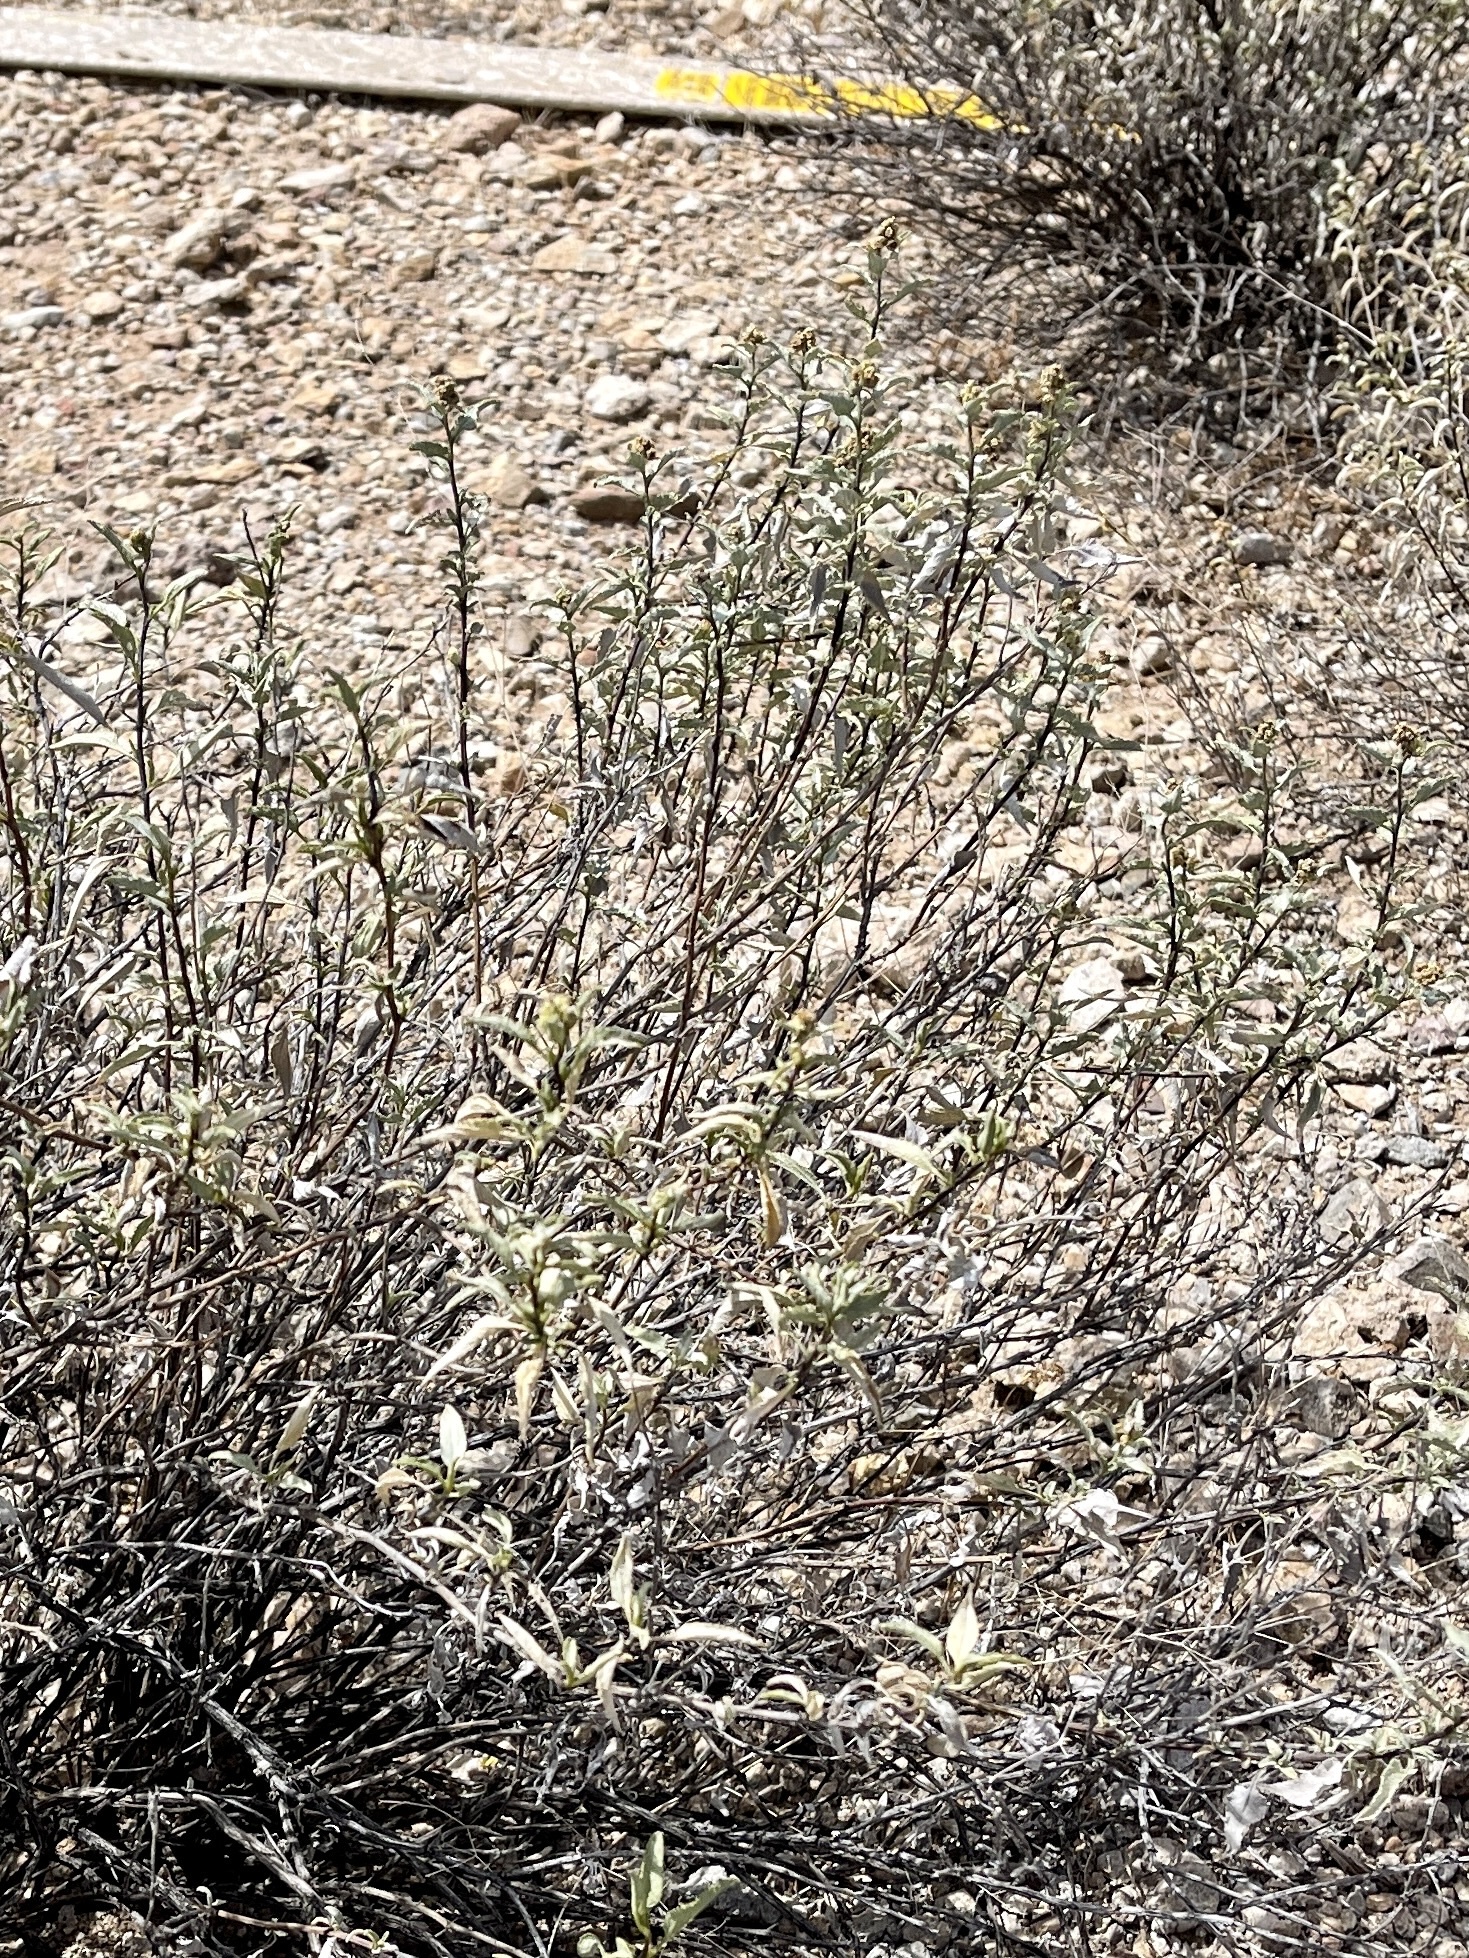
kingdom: Plantae
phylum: Tracheophyta
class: Magnoliopsida
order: Asterales
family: Asteraceae
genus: Ambrosia
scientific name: Ambrosia deltoidea
